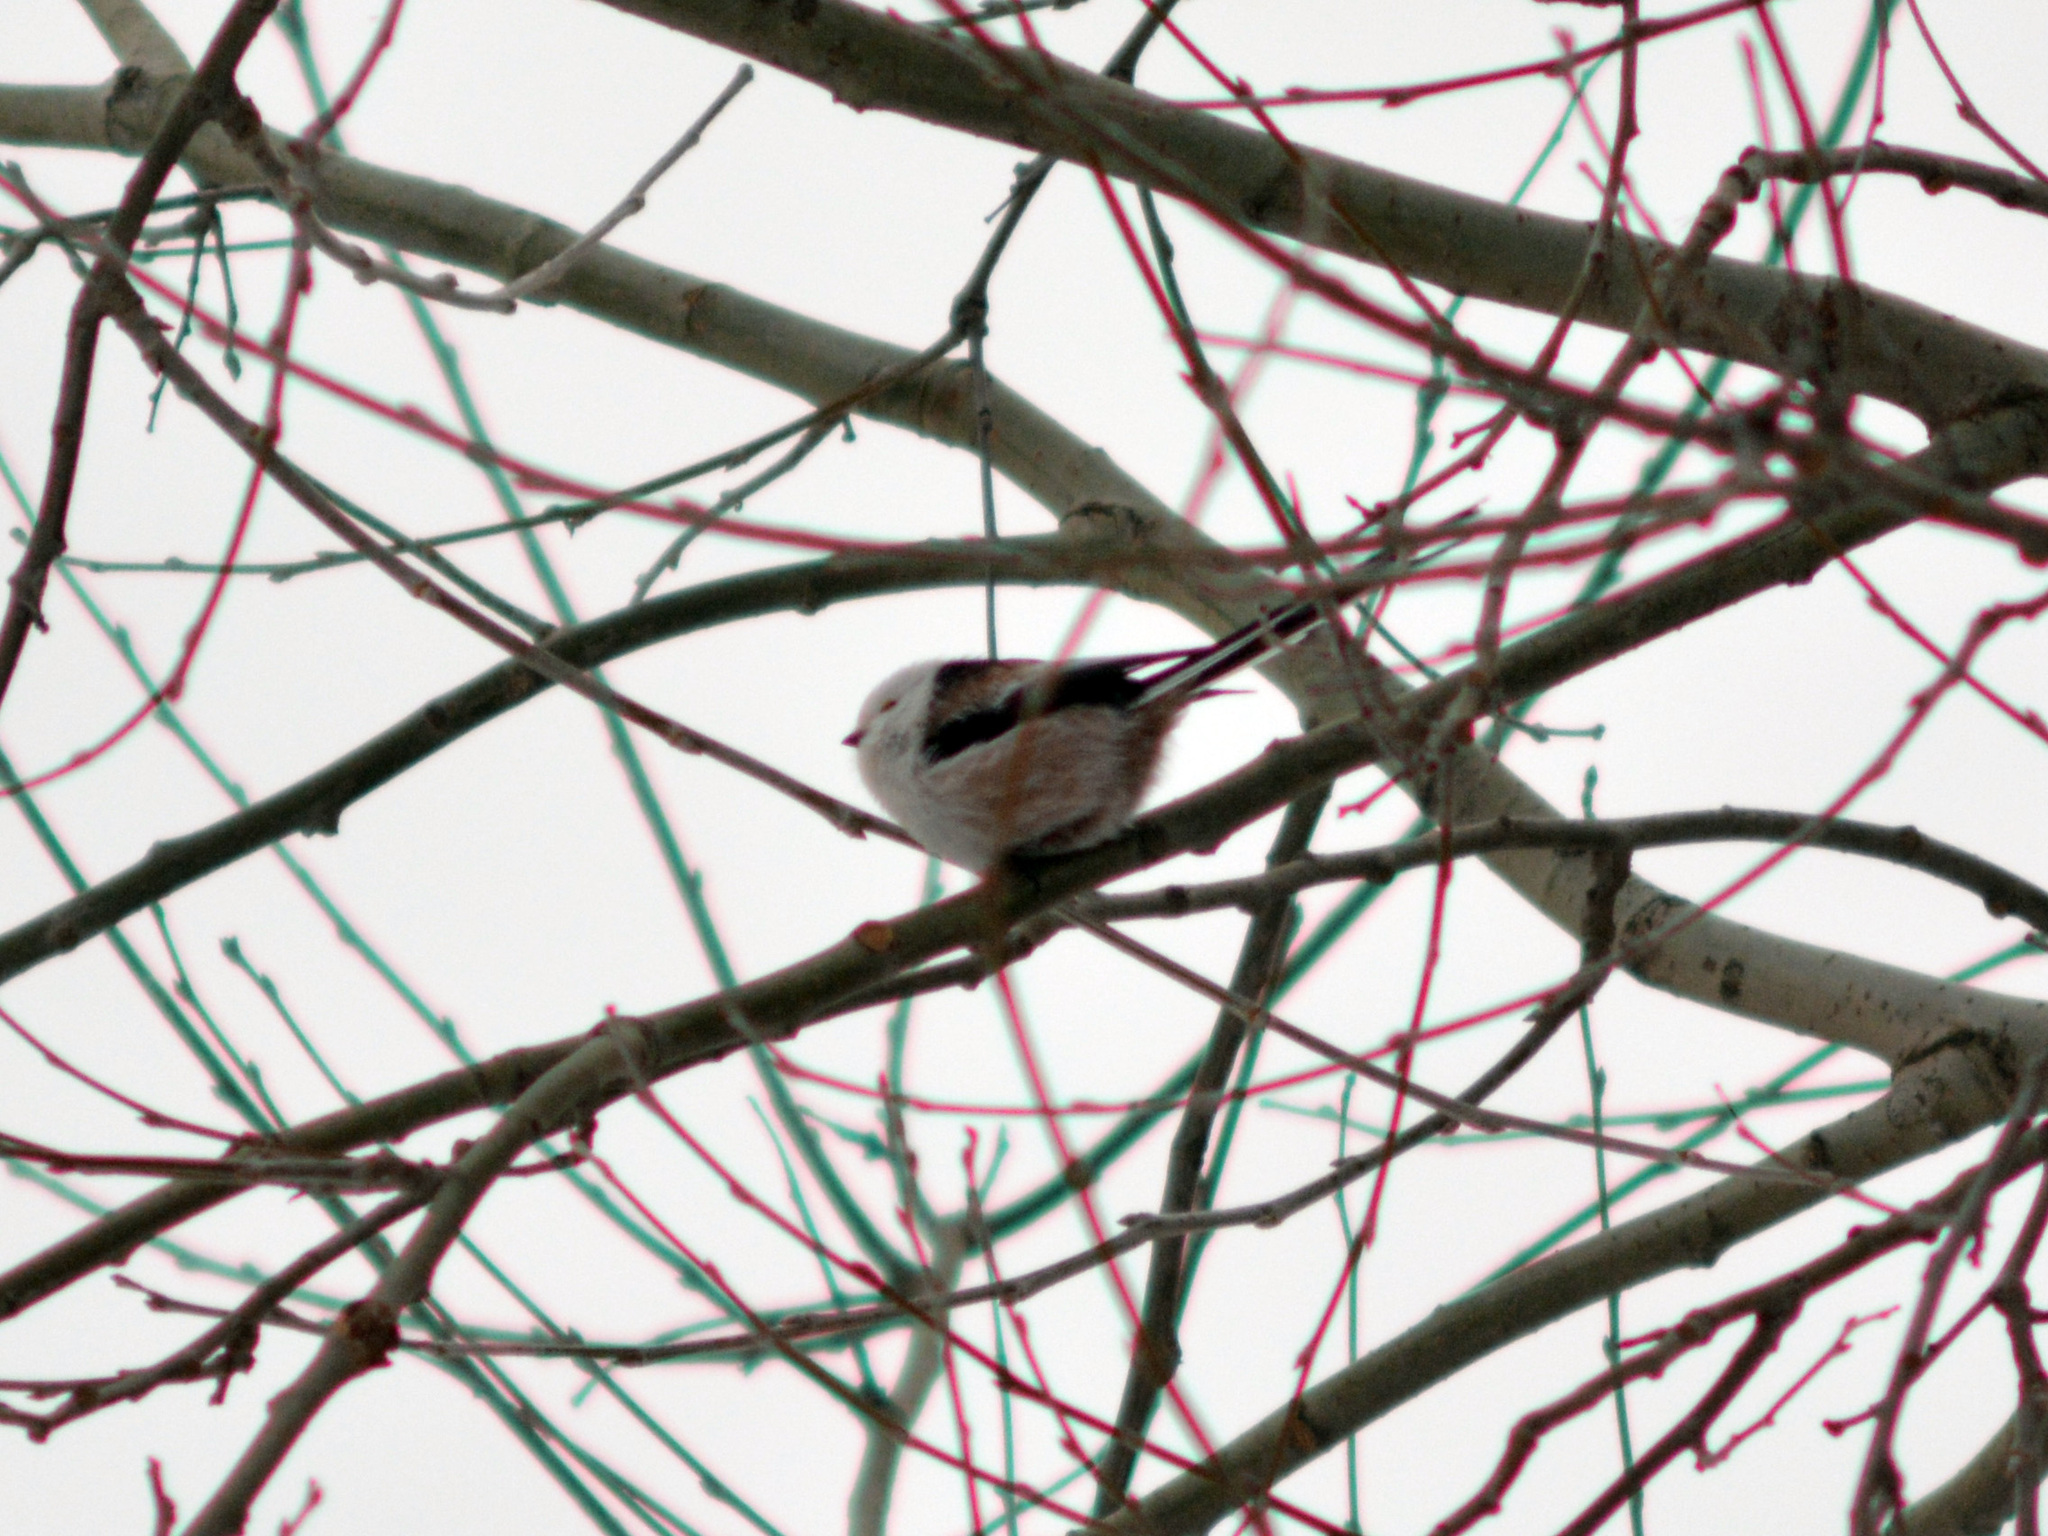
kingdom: Animalia
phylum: Chordata
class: Aves
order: Passeriformes
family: Aegithalidae
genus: Aegithalos
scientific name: Aegithalos caudatus
